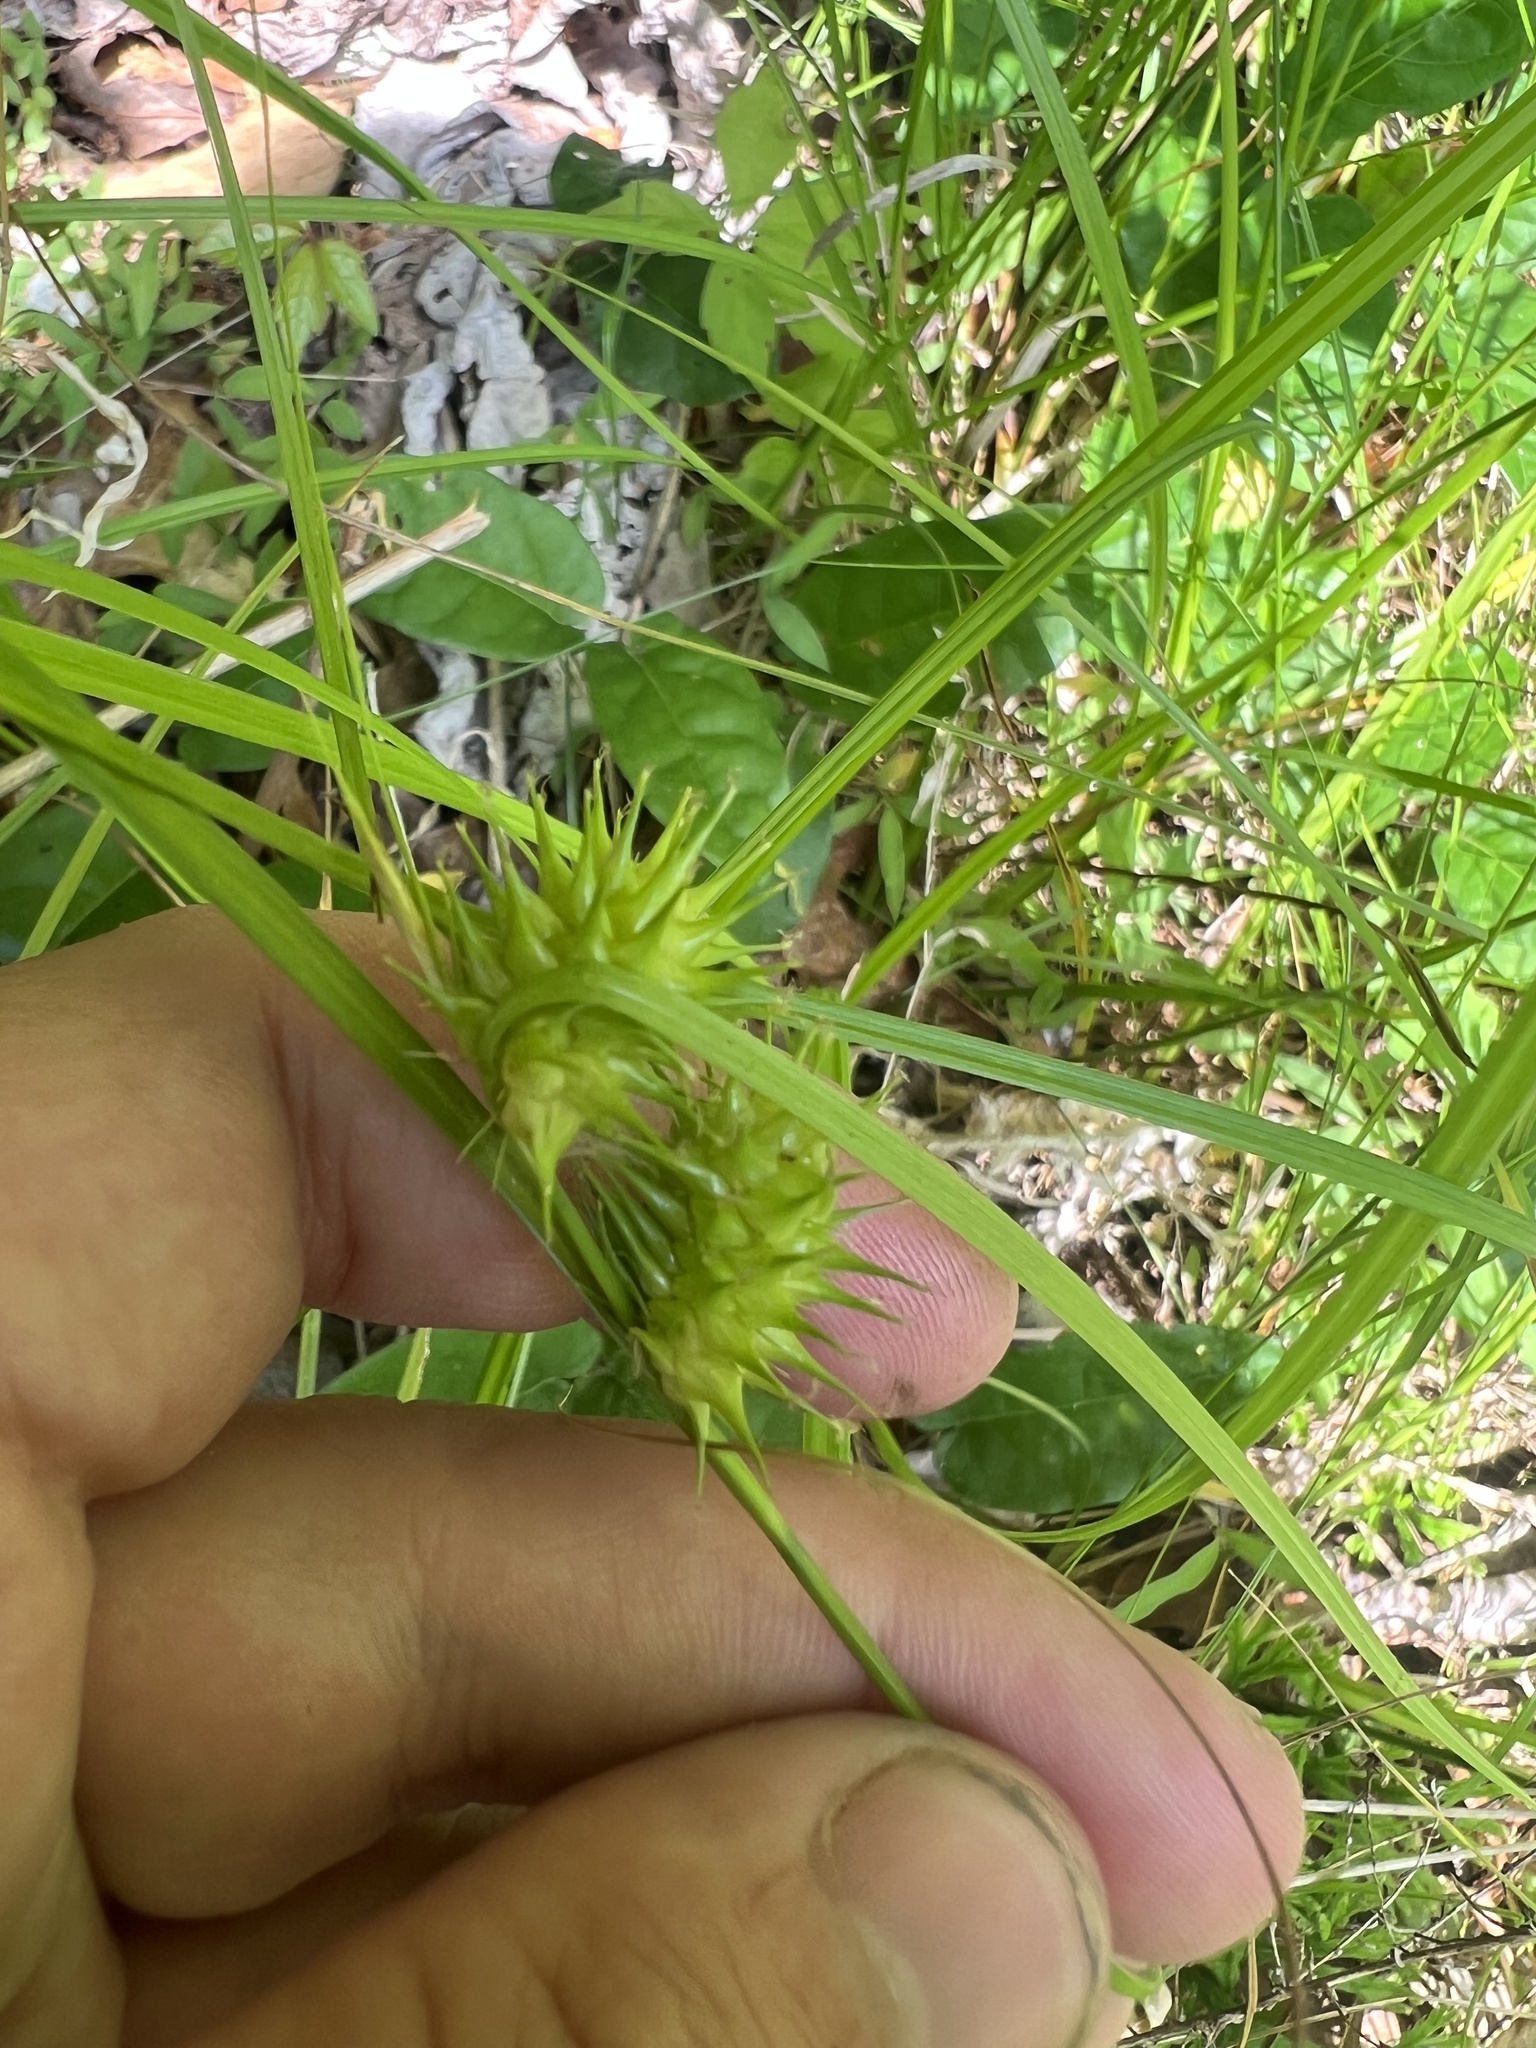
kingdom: Plantae
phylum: Tracheophyta
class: Liliopsida
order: Poales
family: Cyperaceae
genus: Carex
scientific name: Carex lurida
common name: Sallow sedge
